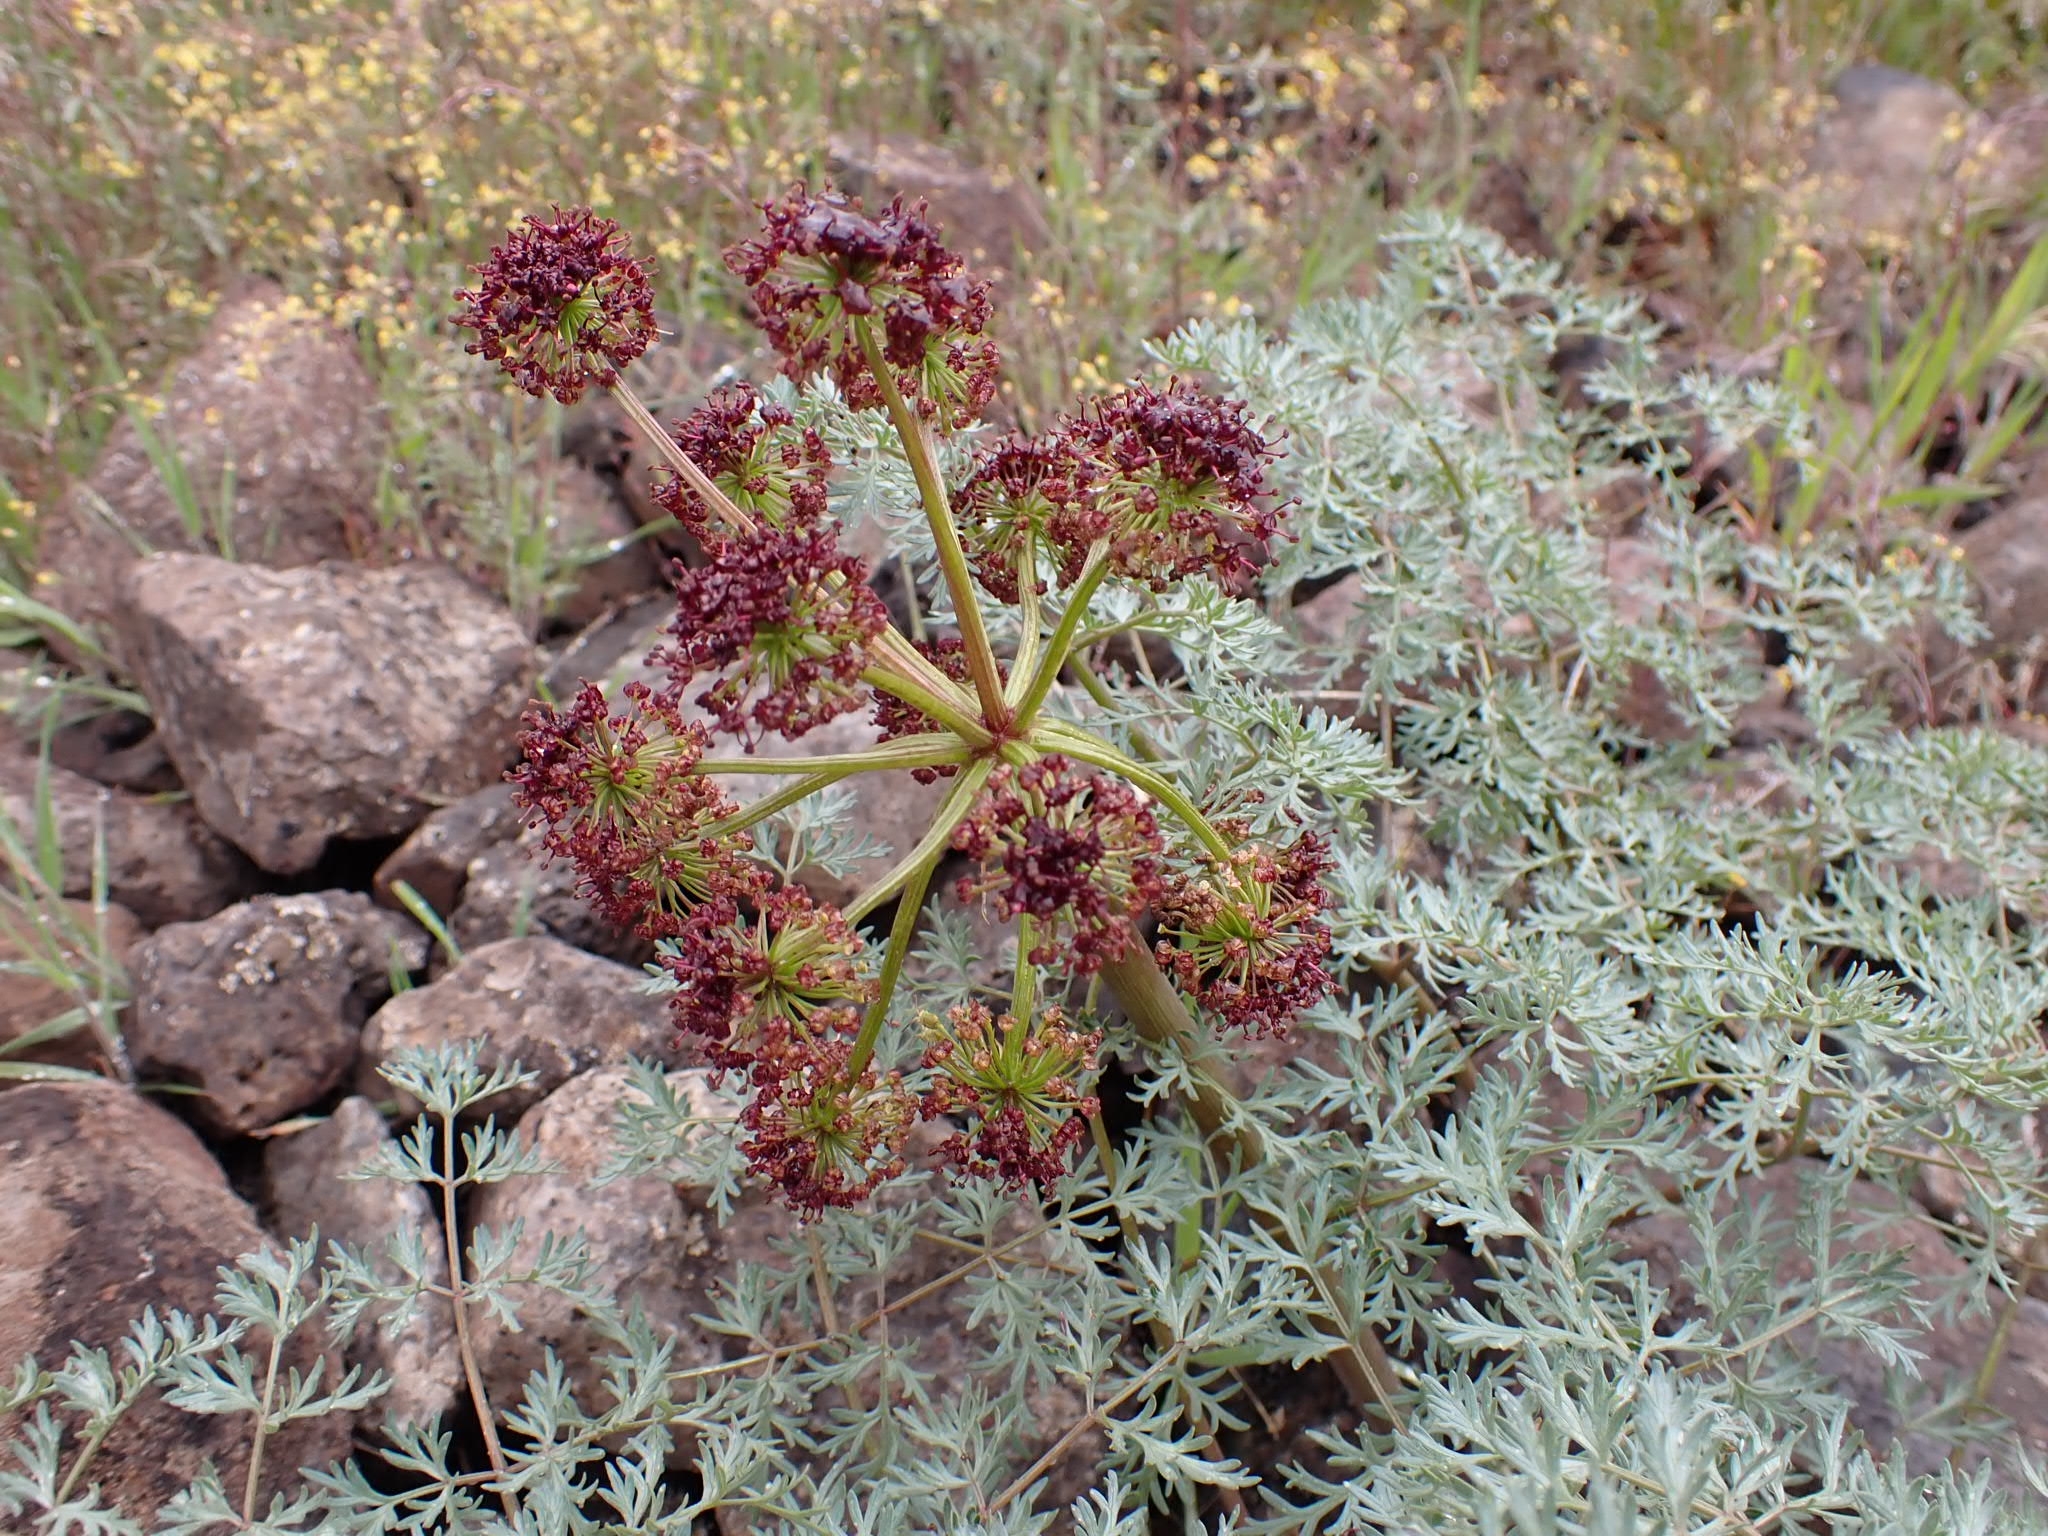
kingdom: Plantae
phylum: Tracheophyta
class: Magnoliopsida
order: Apiales
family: Apiaceae
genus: Lomatium
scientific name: Lomatium dissectum
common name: Lomatium
